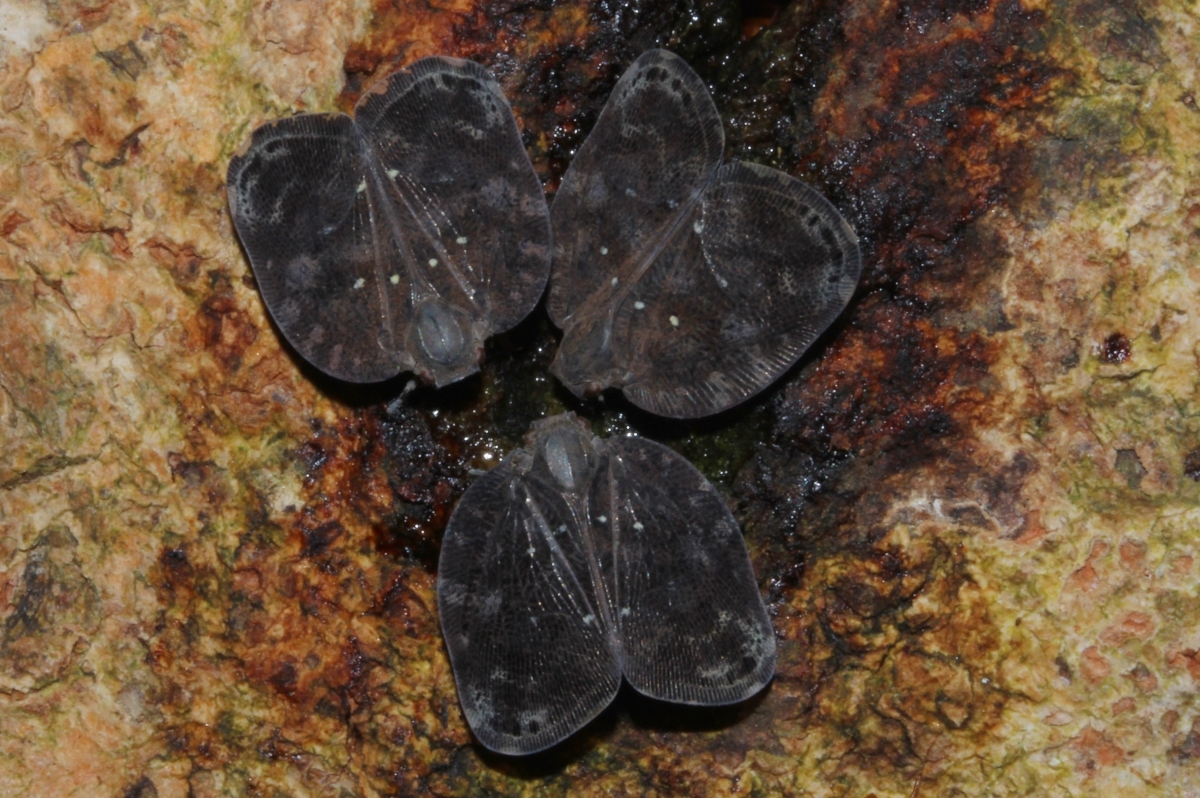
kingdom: Animalia
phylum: Arthropoda
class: Insecta
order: Hemiptera
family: Nogodinidae
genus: Vutina
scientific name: Vutina
